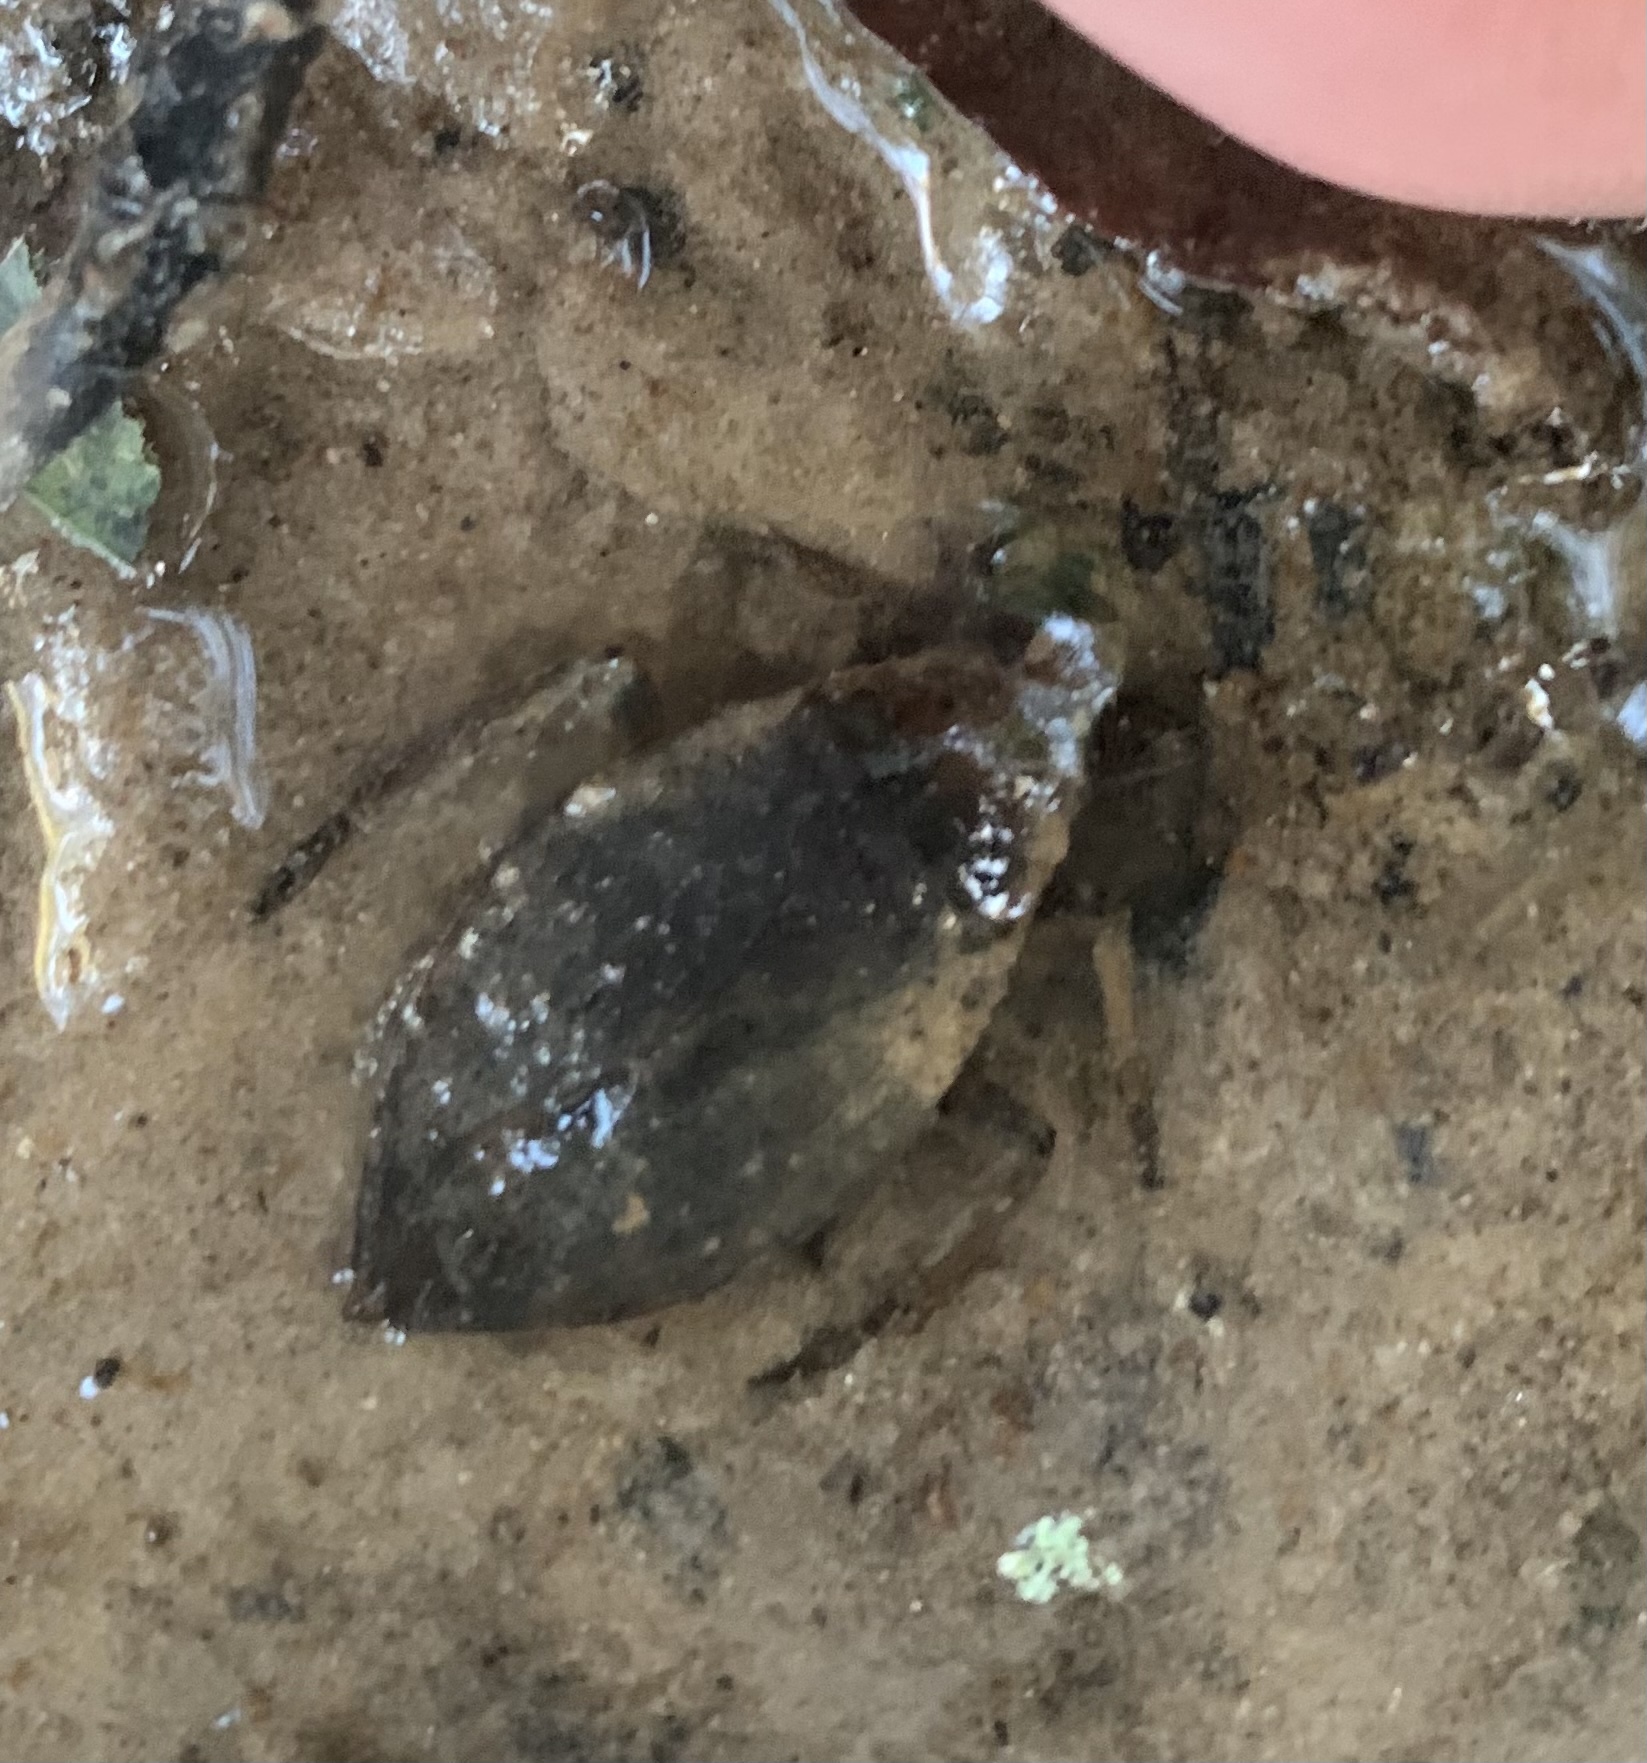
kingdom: Animalia
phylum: Arthropoda
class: Insecta
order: Hemiptera
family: Belostomatidae
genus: Belostoma
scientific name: Belostoma
